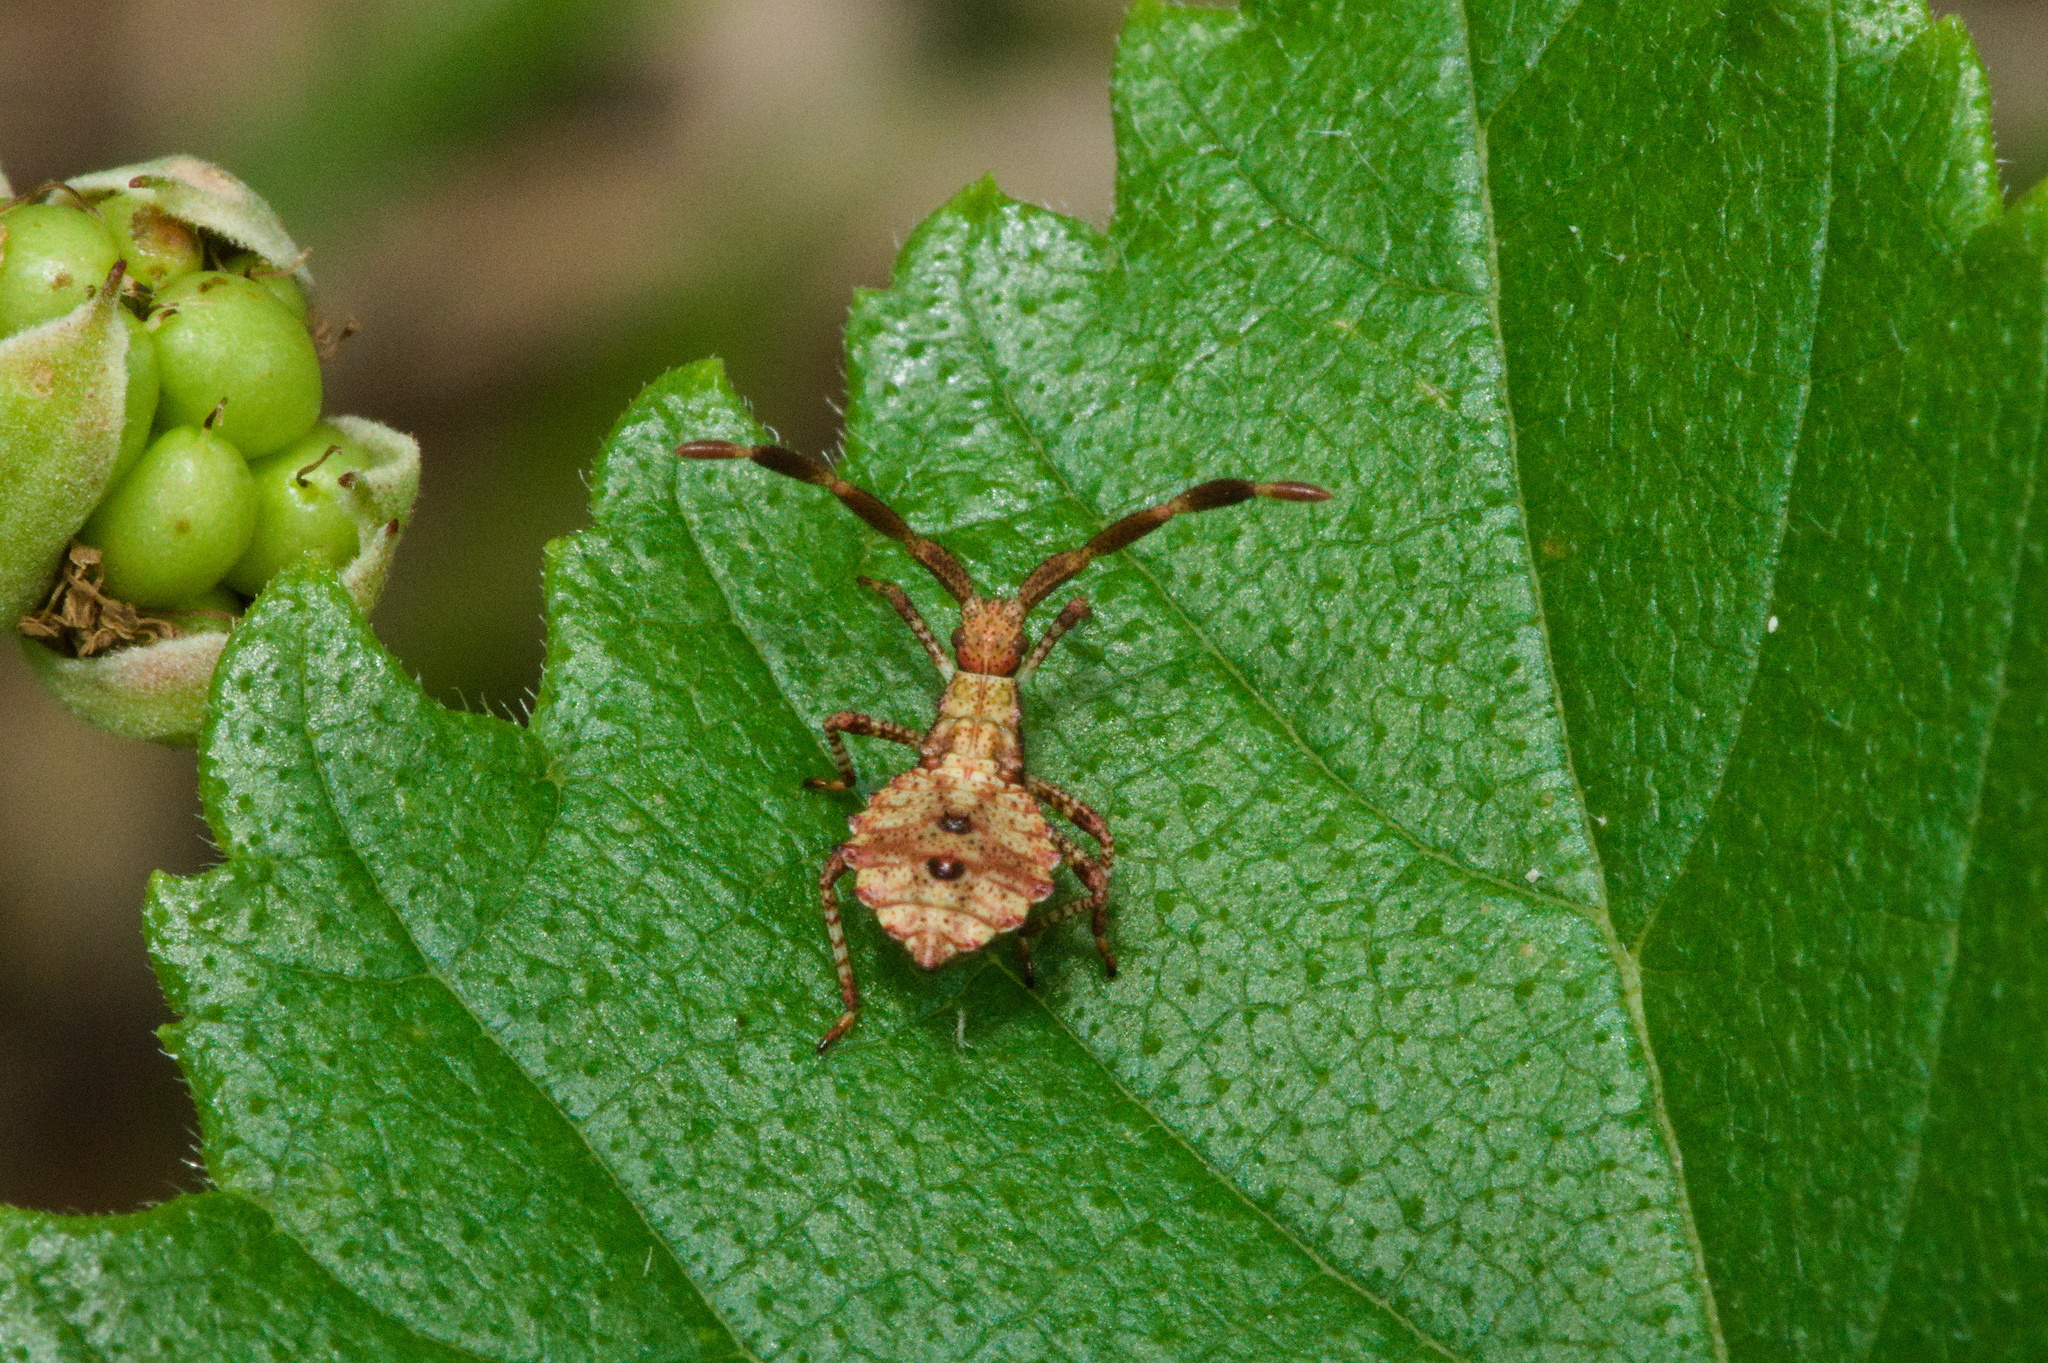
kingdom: Animalia
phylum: Arthropoda
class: Insecta
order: Hemiptera
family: Coreidae
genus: Coreus
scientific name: Coreus marginatus
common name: Dock bug
